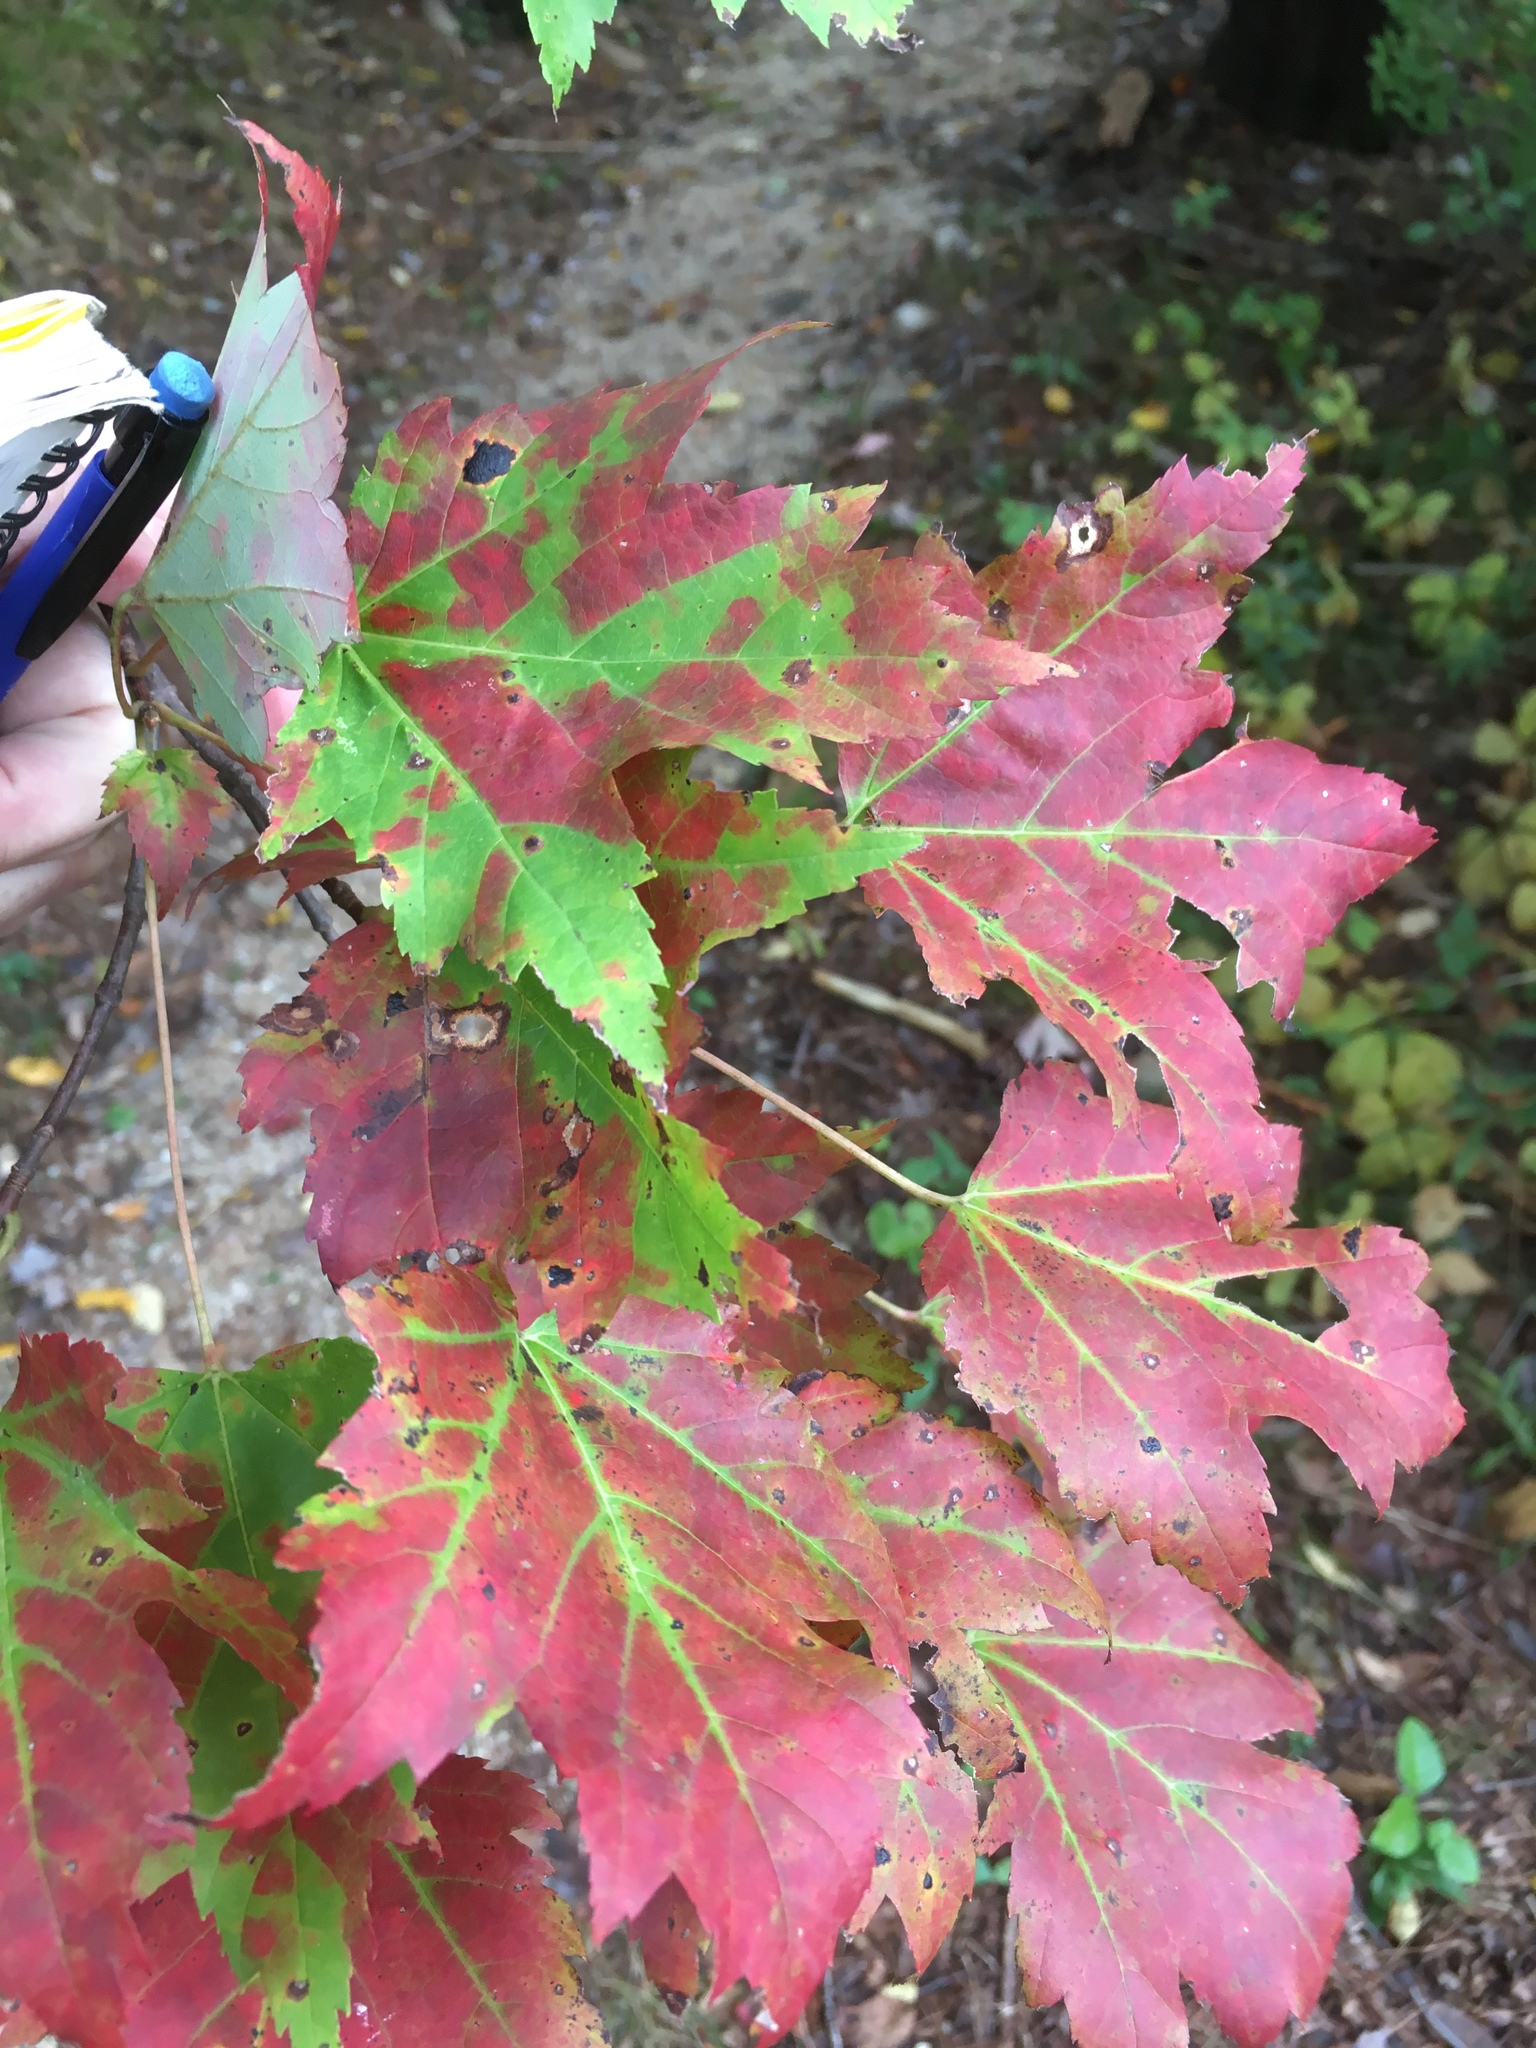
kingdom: Plantae
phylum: Tracheophyta
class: Magnoliopsida
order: Sapindales
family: Sapindaceae
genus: Acer
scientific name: Acer rubrum
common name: Red maple
